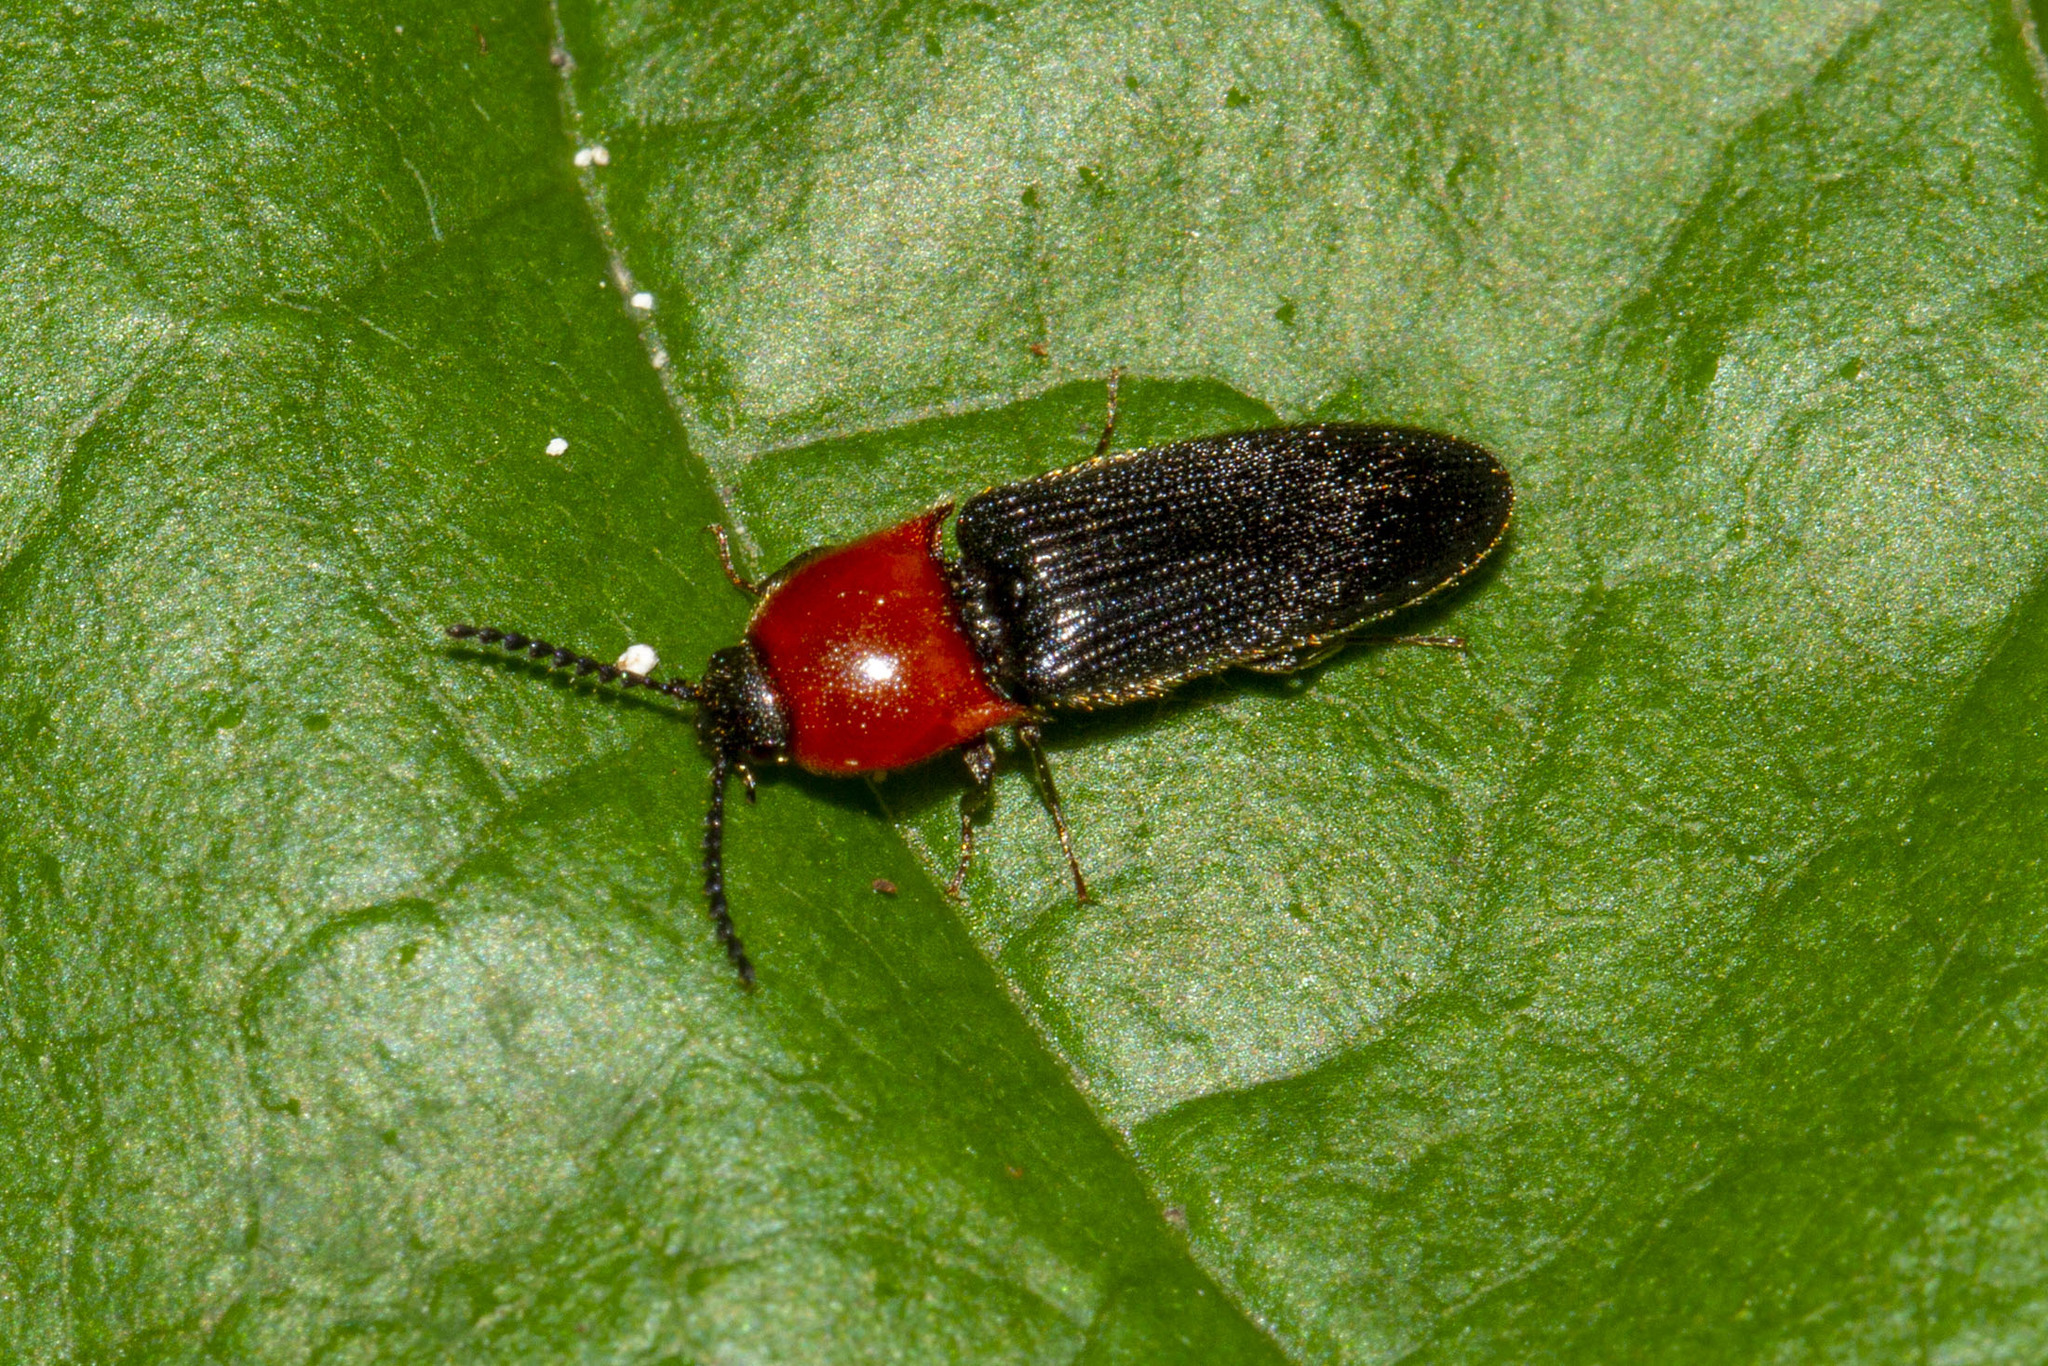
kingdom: Animalia
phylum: Arthropoda
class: Insecta
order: Coleoptera
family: Elateridae
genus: Ampedus
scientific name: Ampedus collaris
